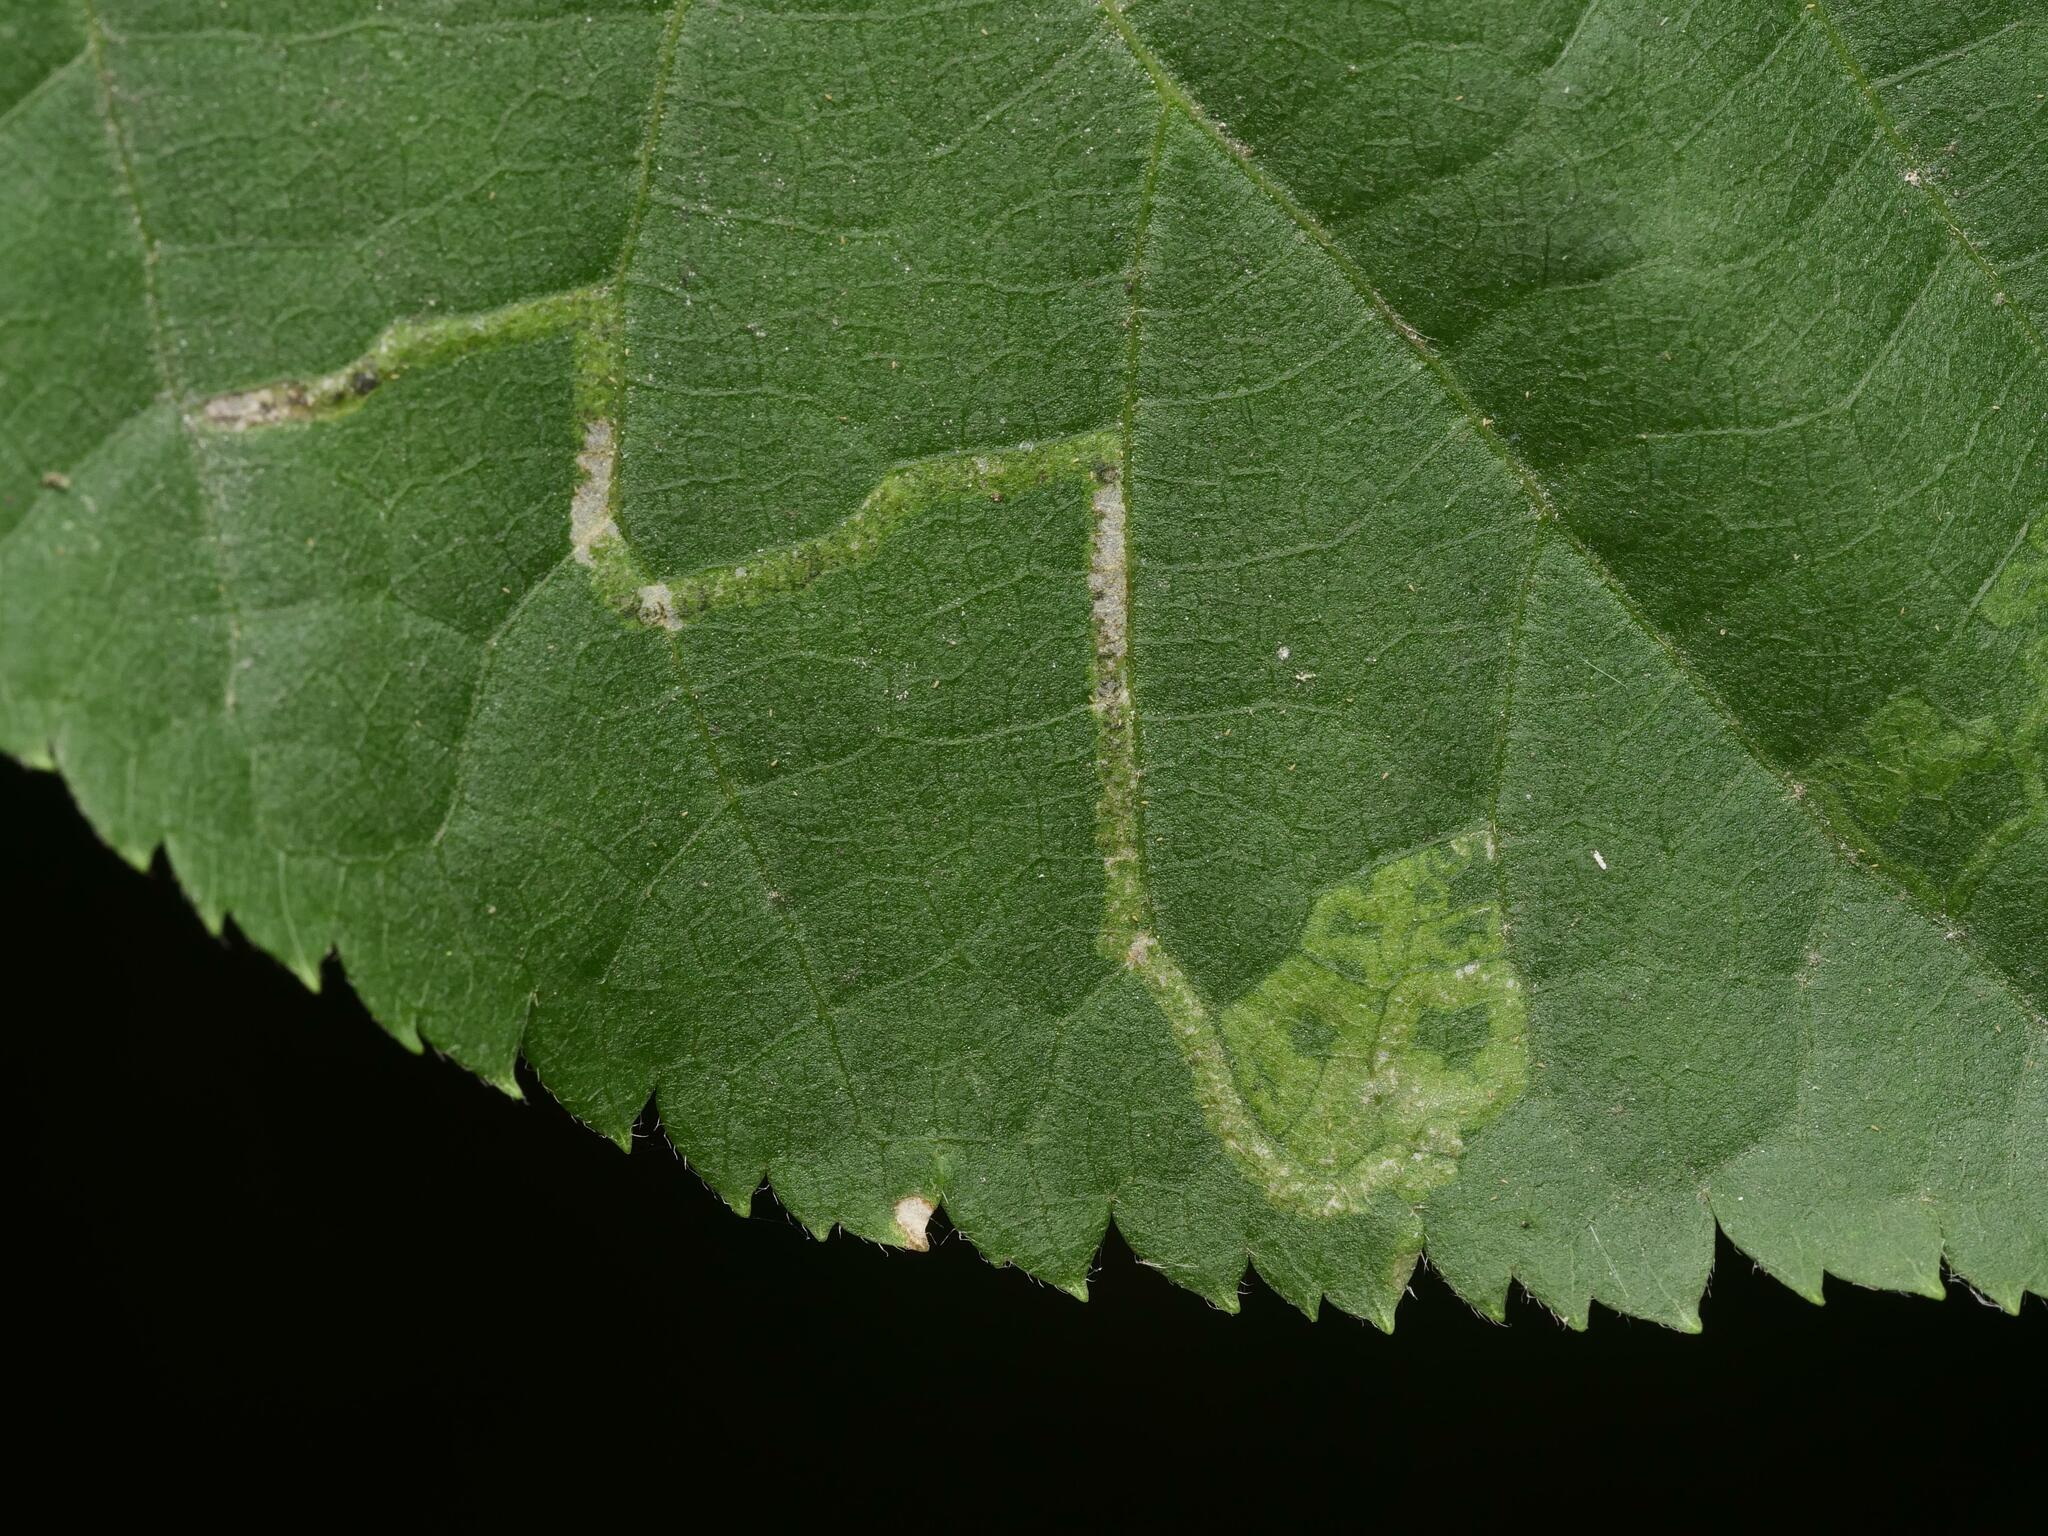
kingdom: Animalia
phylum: Arthropoda
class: Insecta
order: Lepidoptera
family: Nepticulidae
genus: Stigmella
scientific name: Stigmella tiliae
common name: Lime pigmy
